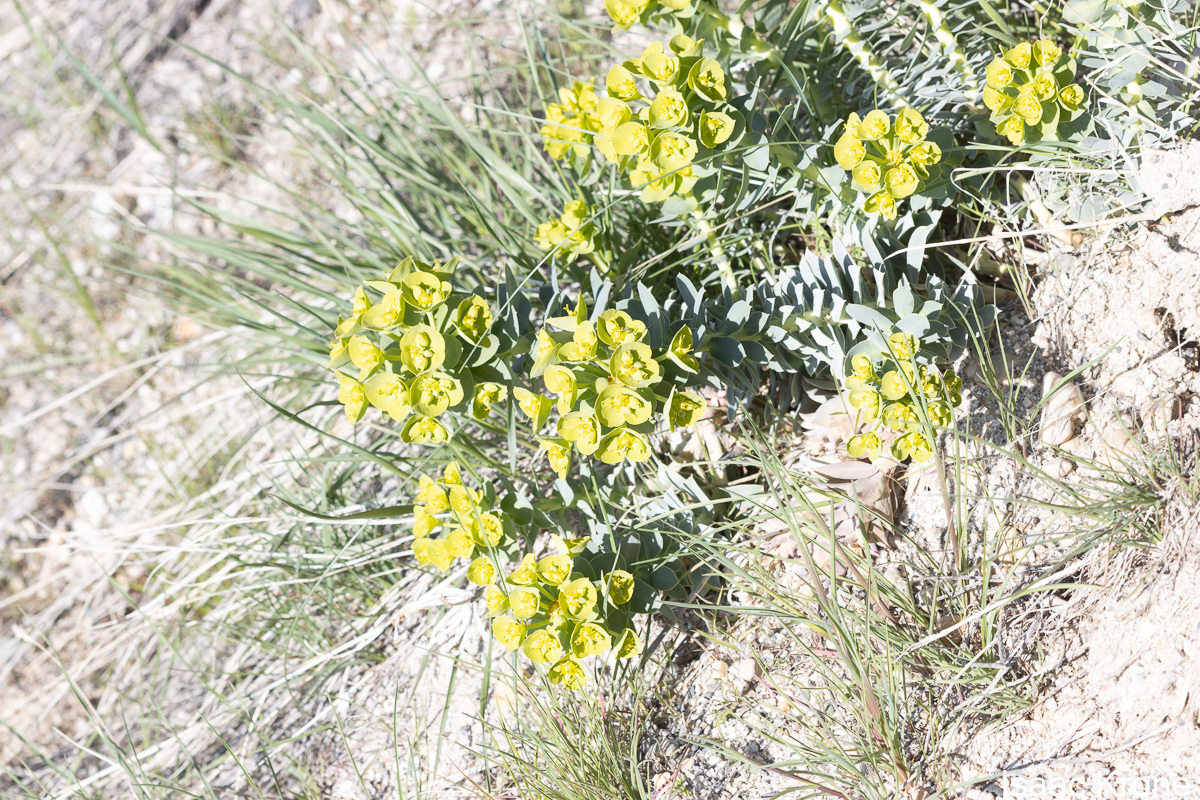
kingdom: Plantae
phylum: Tracheophyta
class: Magnoliopsida
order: Malpighiales
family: Euphorbiaceae
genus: Euphorbia
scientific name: Euphorbia myrsinites
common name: Myrtle spurge
